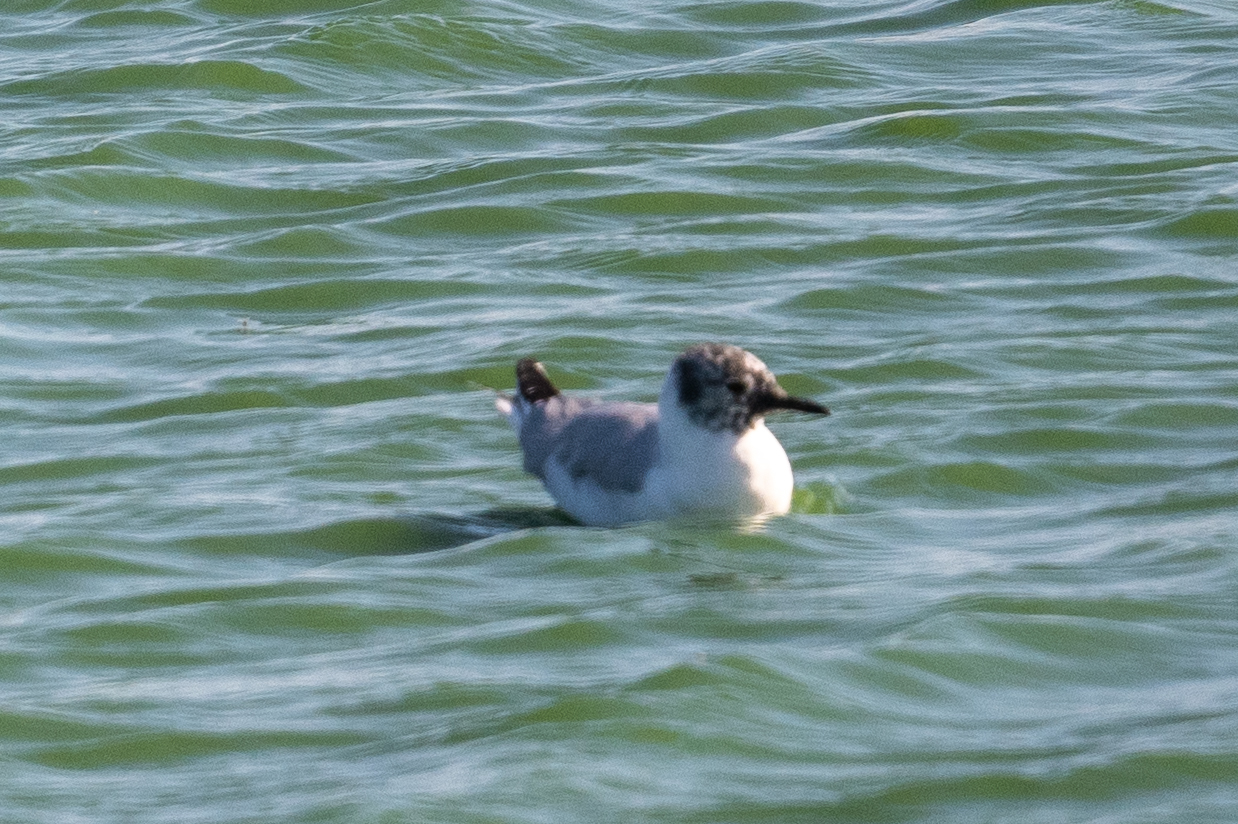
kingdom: Animalia
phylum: Chordata
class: Aves
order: Charadriiformes
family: Laridae
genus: Chroicocephalus
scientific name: Chroicocephalus philadelphia
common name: Bonaparte's gull
